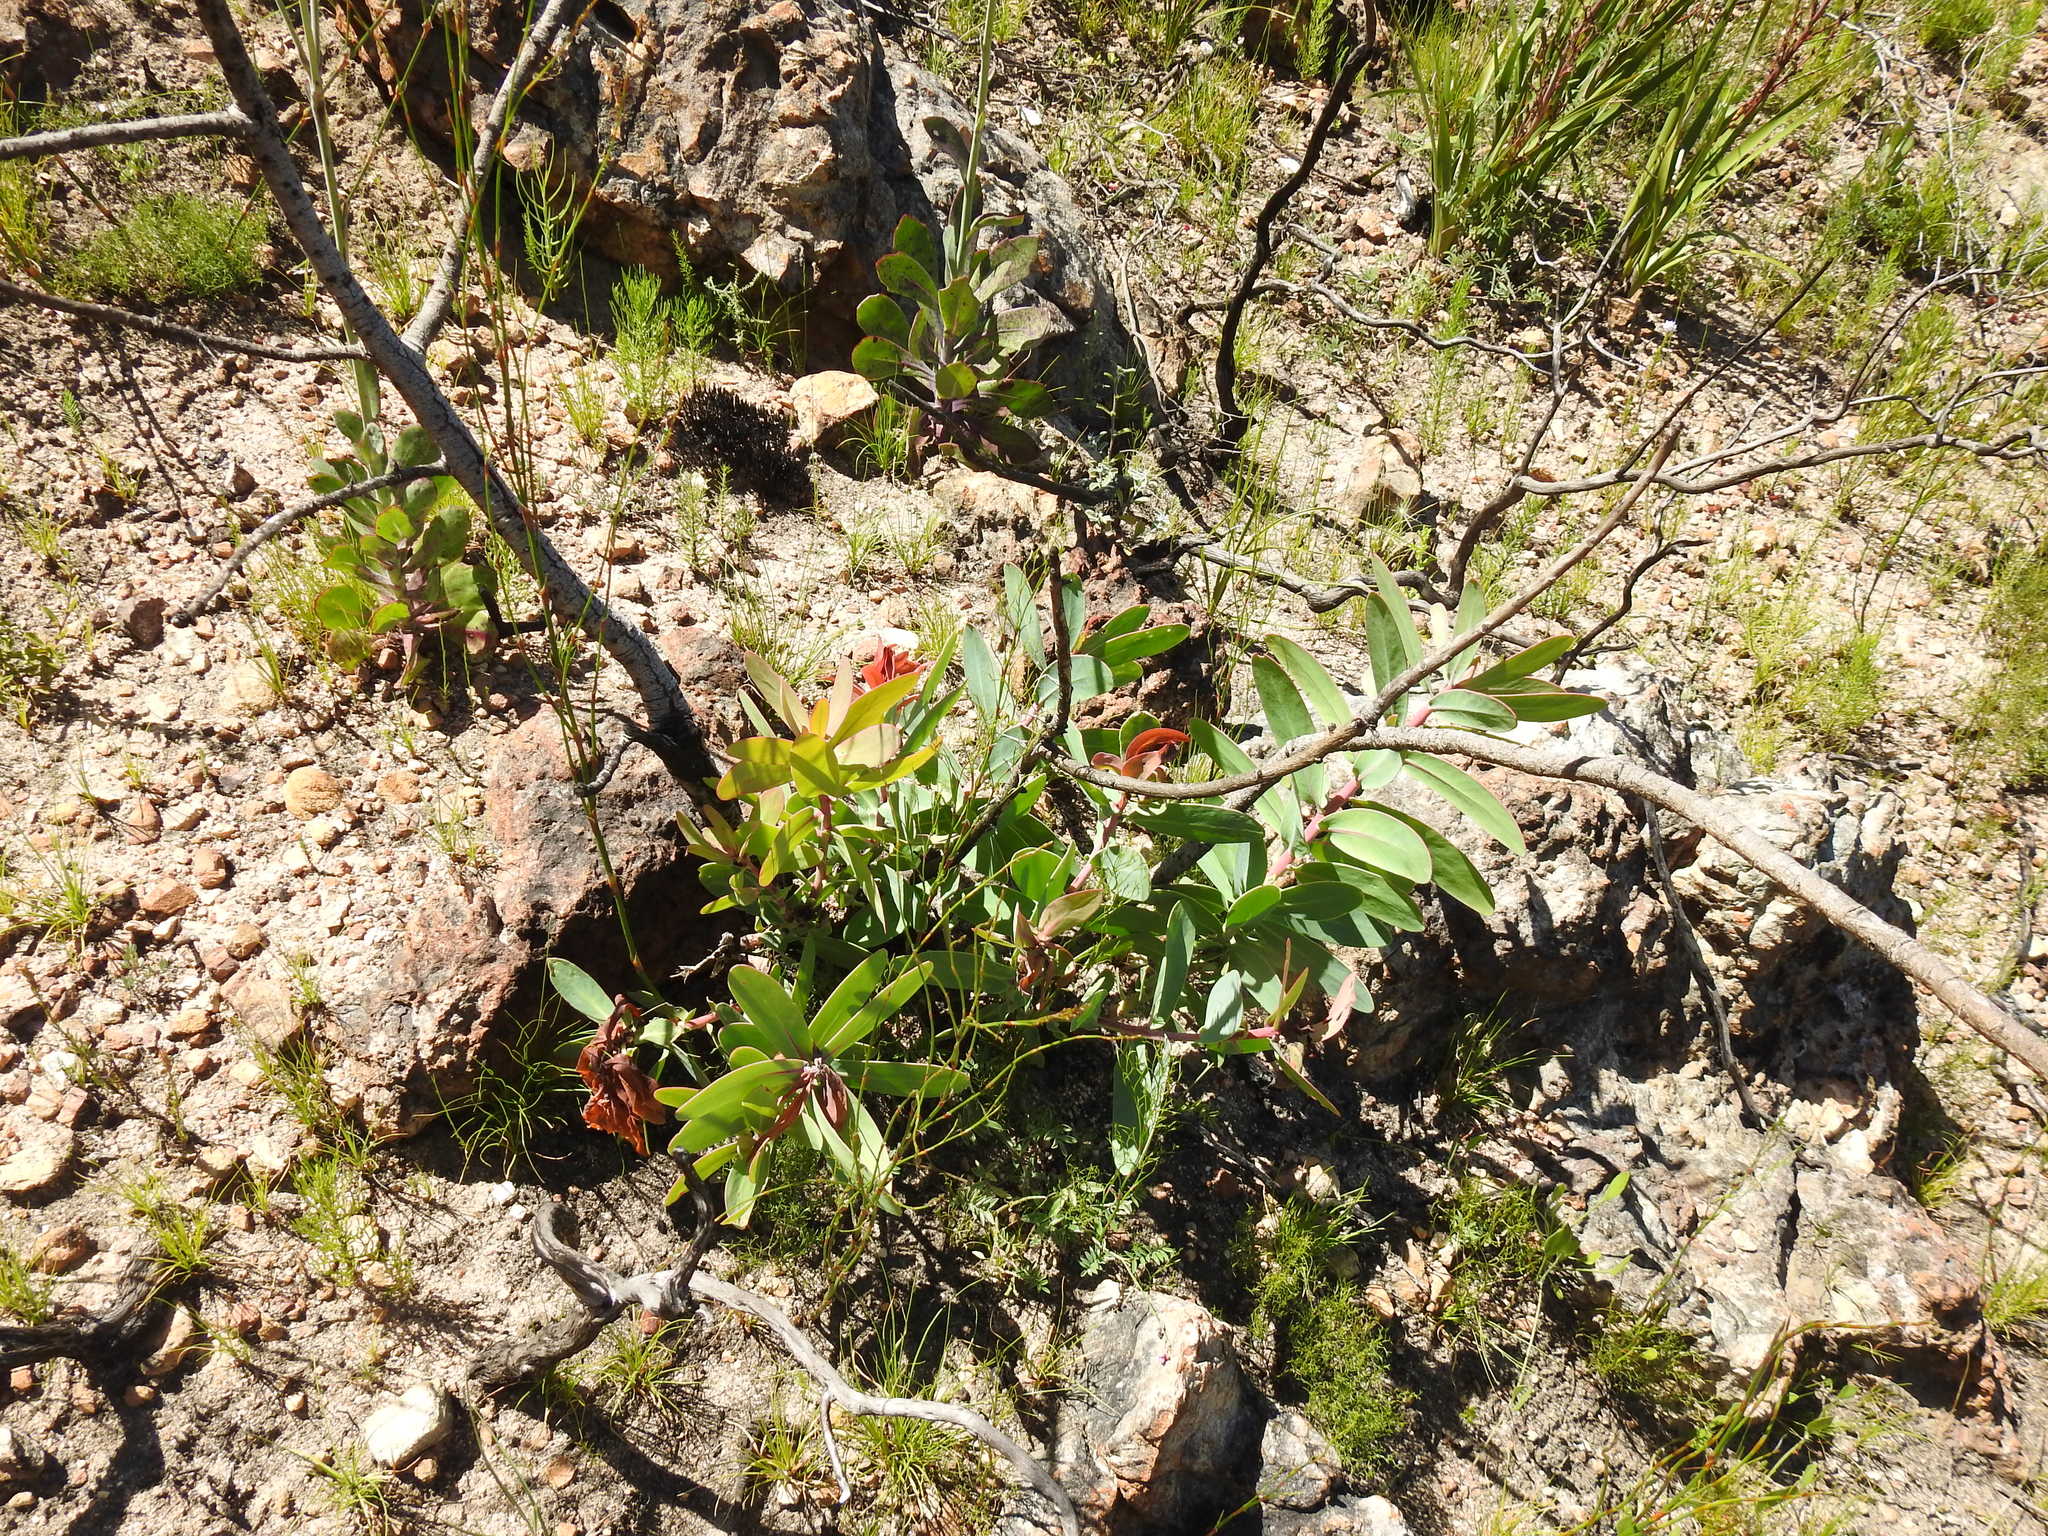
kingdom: Plantae
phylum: Tracheophyta
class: Magnoliopsida
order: Proteales
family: Proteaceae
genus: Protea
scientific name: Protea nitida
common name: Tree protea
